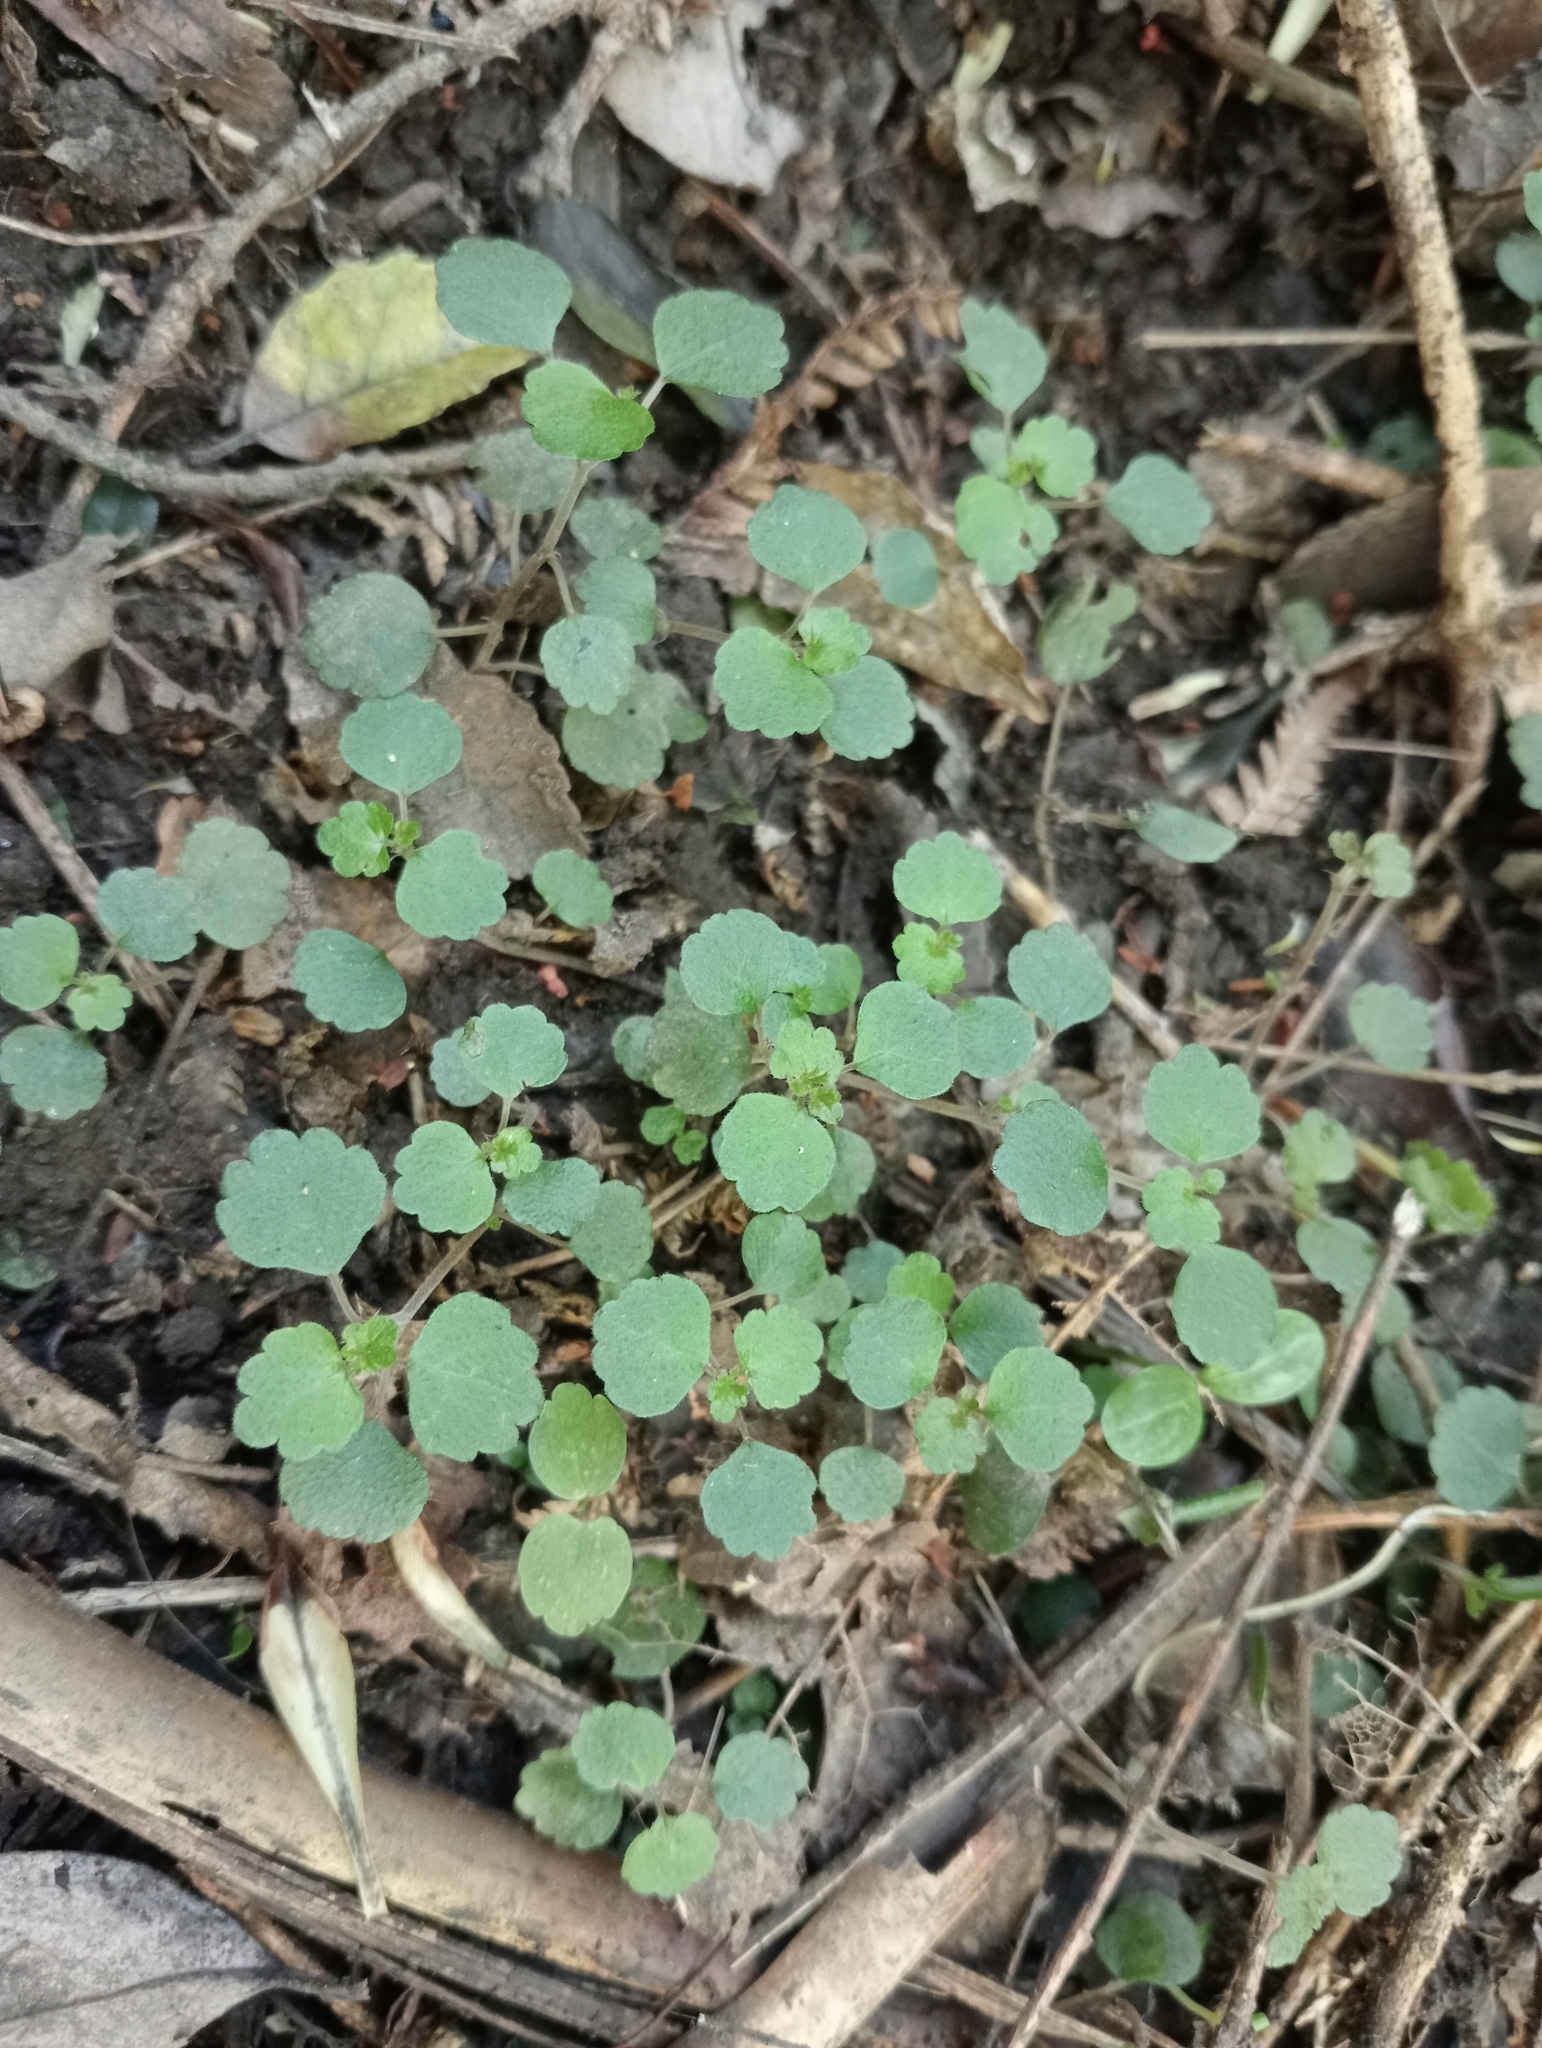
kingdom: Plantae
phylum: Tracheophyta
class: Magnoliopsida
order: Rosales
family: Urticaceae
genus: Australina
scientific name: Australina pusilla
